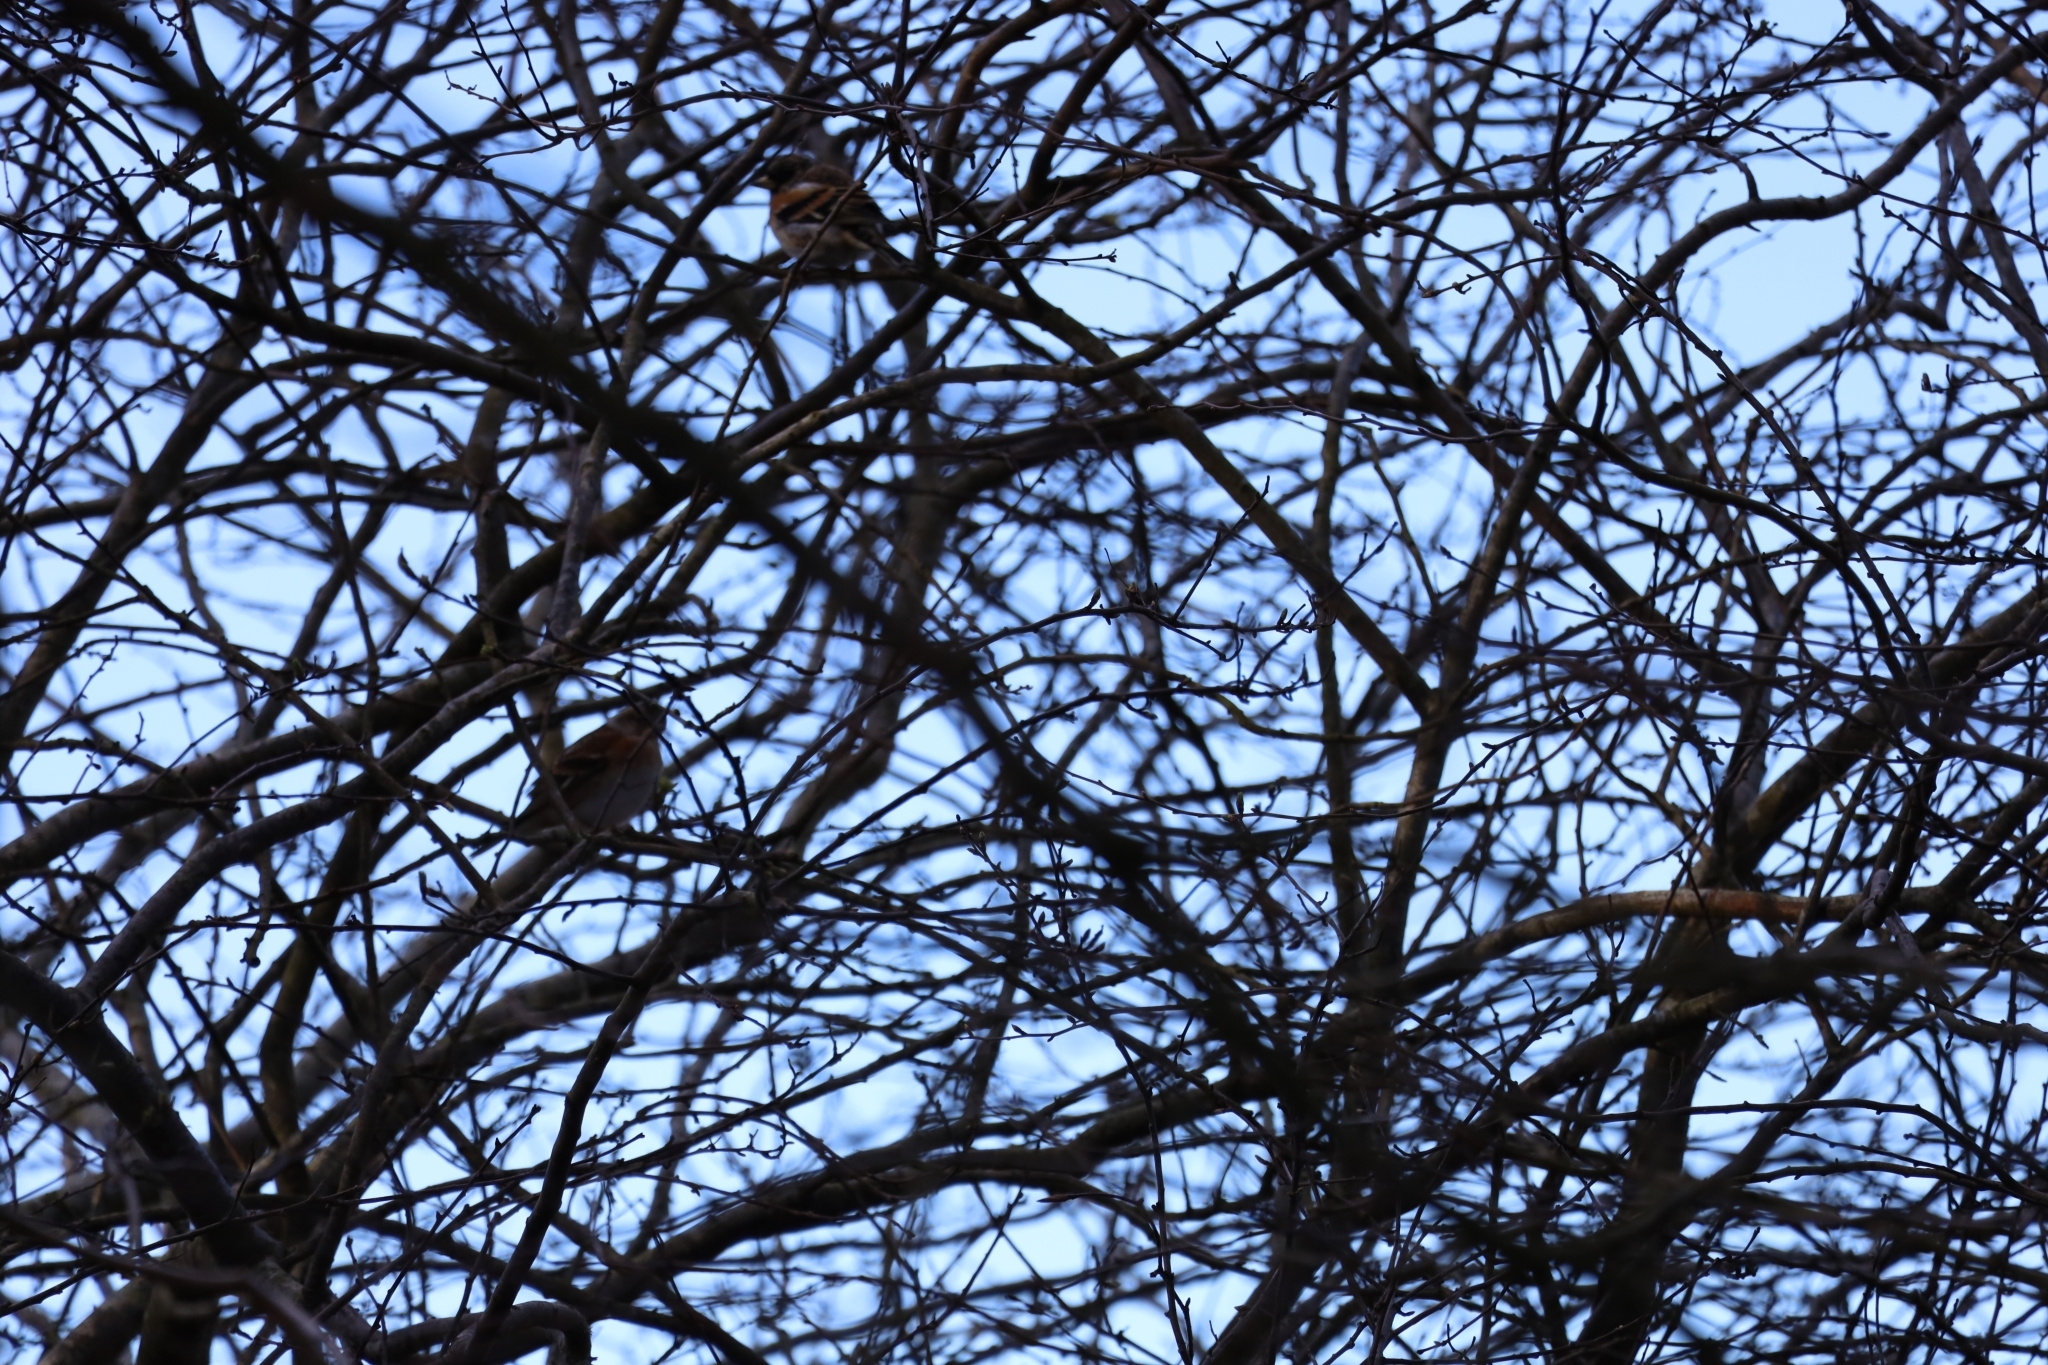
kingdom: Animalia
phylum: Chordata
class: Aves
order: Passeriformes
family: Fringillidae
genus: Fringilla
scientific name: Fringilla montifringilla
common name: Brambling
